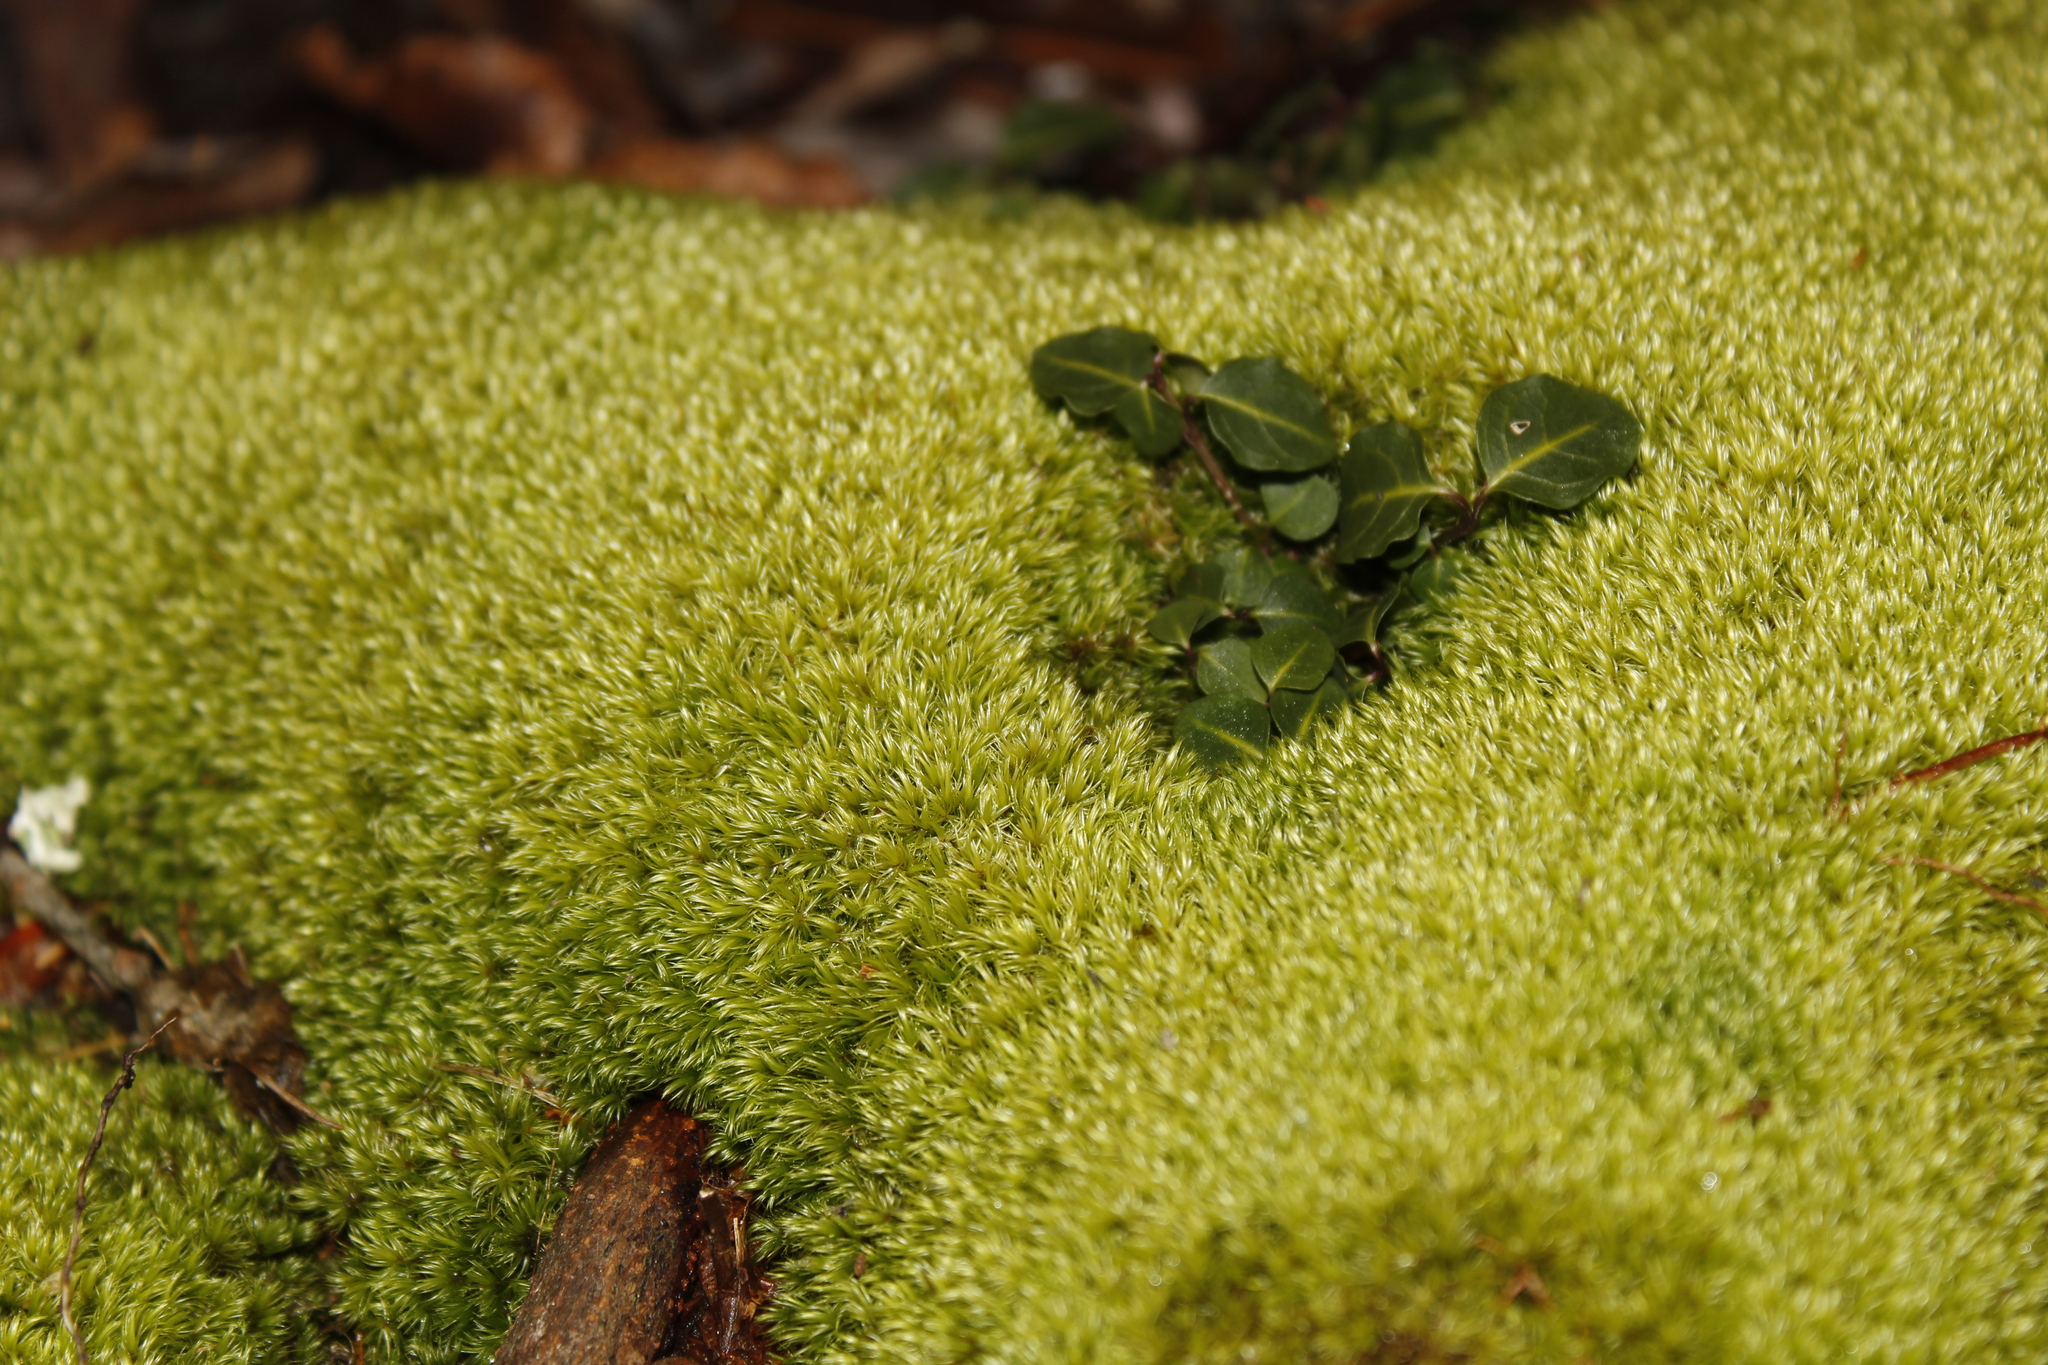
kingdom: Plantae
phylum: Tracheophyta
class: Magnoliopsida
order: Gentianales
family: Rubiaceae
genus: Mitchella
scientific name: Mitchella repens
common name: Partridge-berry
